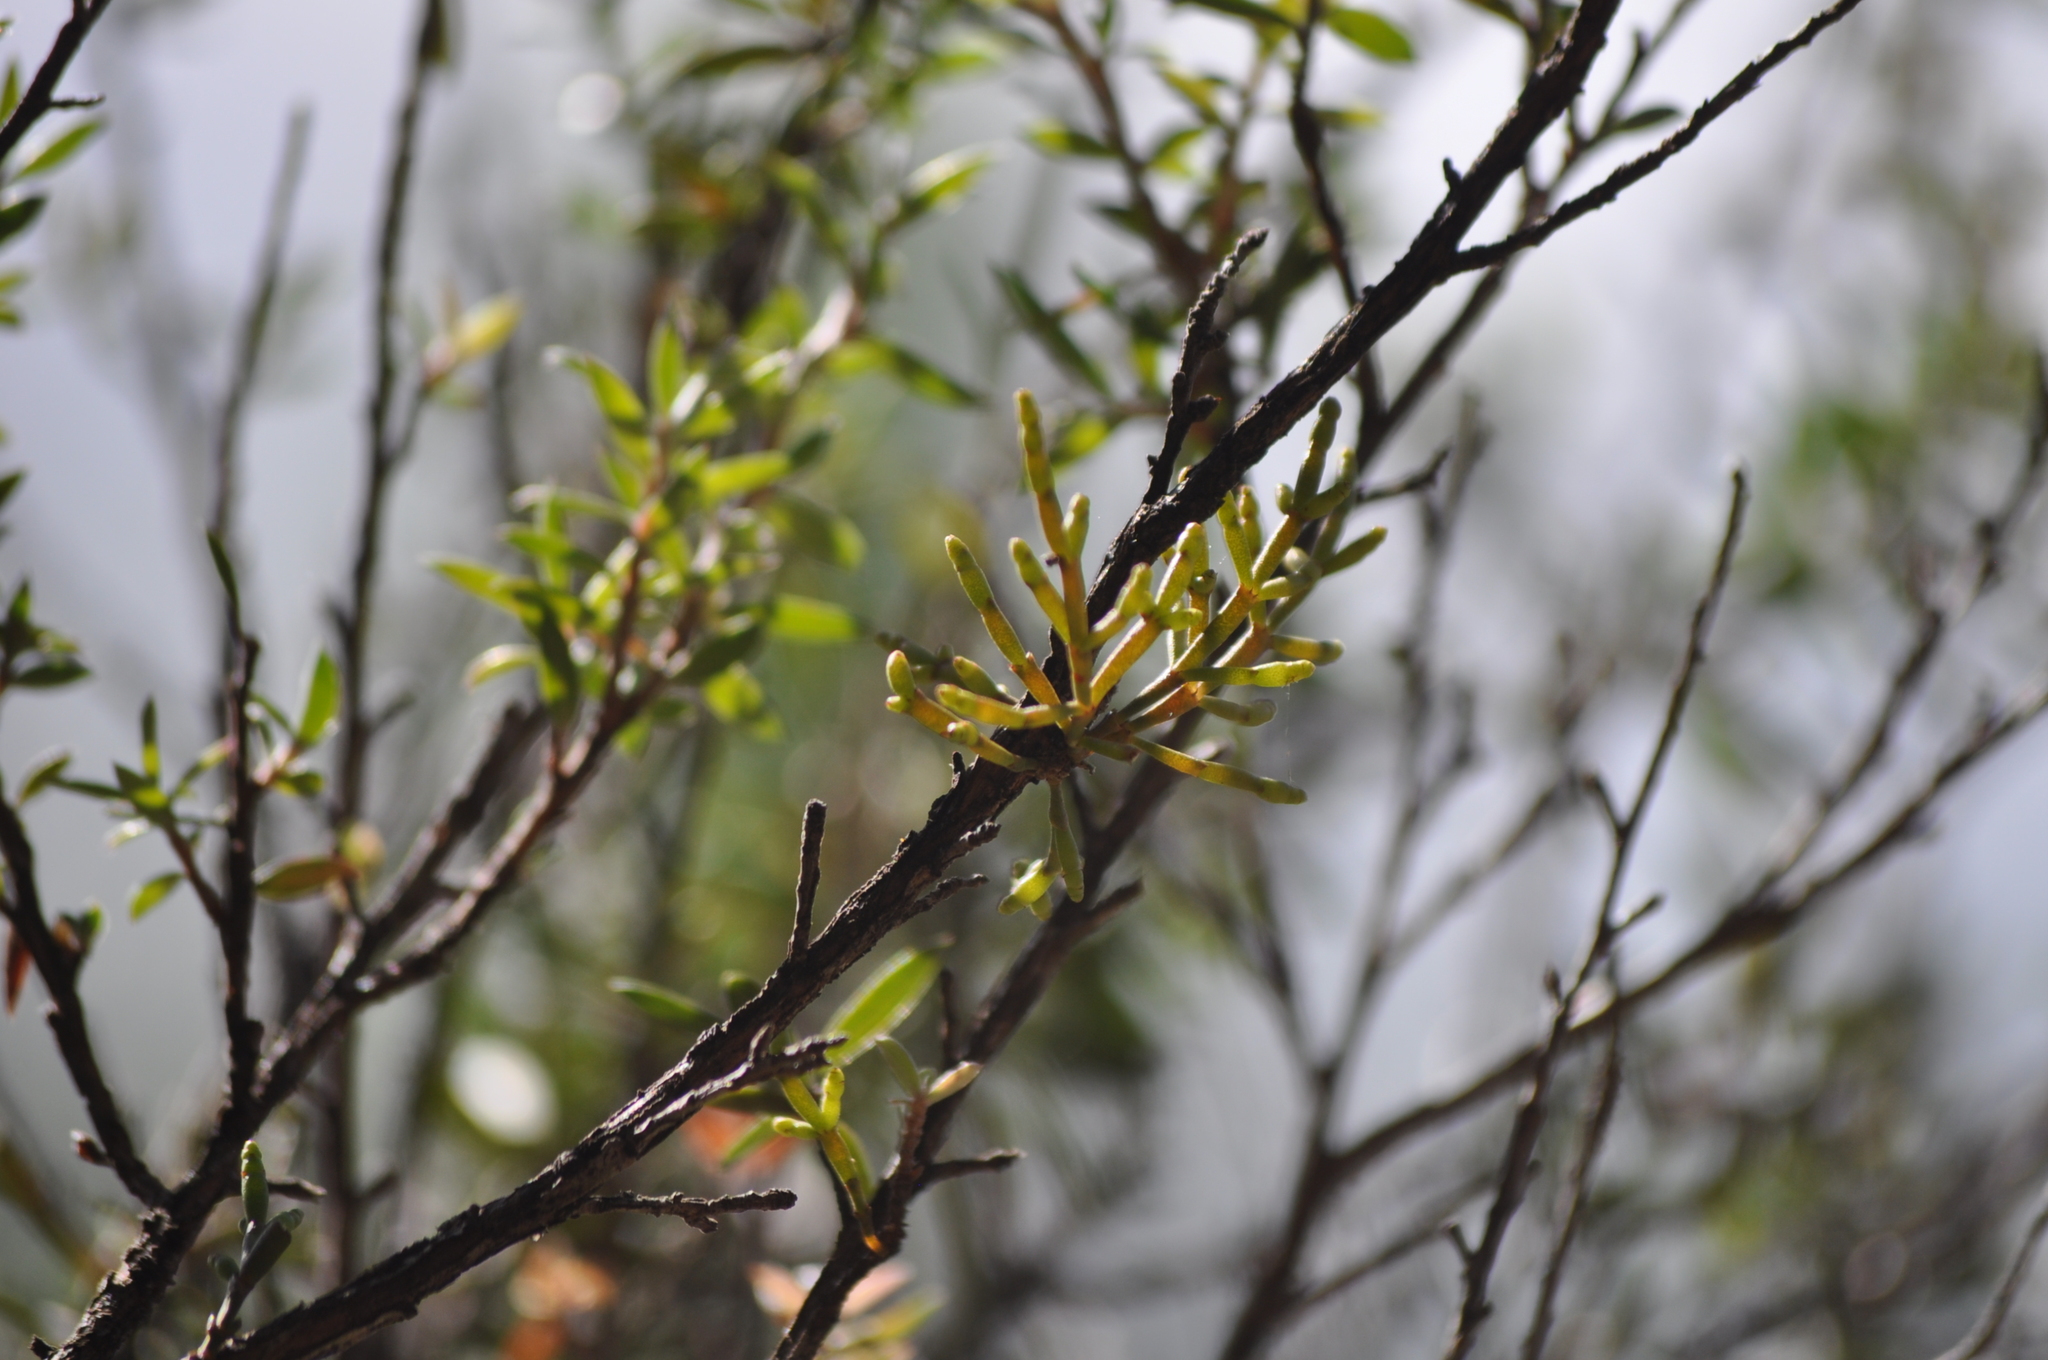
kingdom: Plantae
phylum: Tracheophyta
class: Magnoliopsida
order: Santalales
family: Viscaceae
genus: Korthalsella
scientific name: Korthalsella salicornioides
